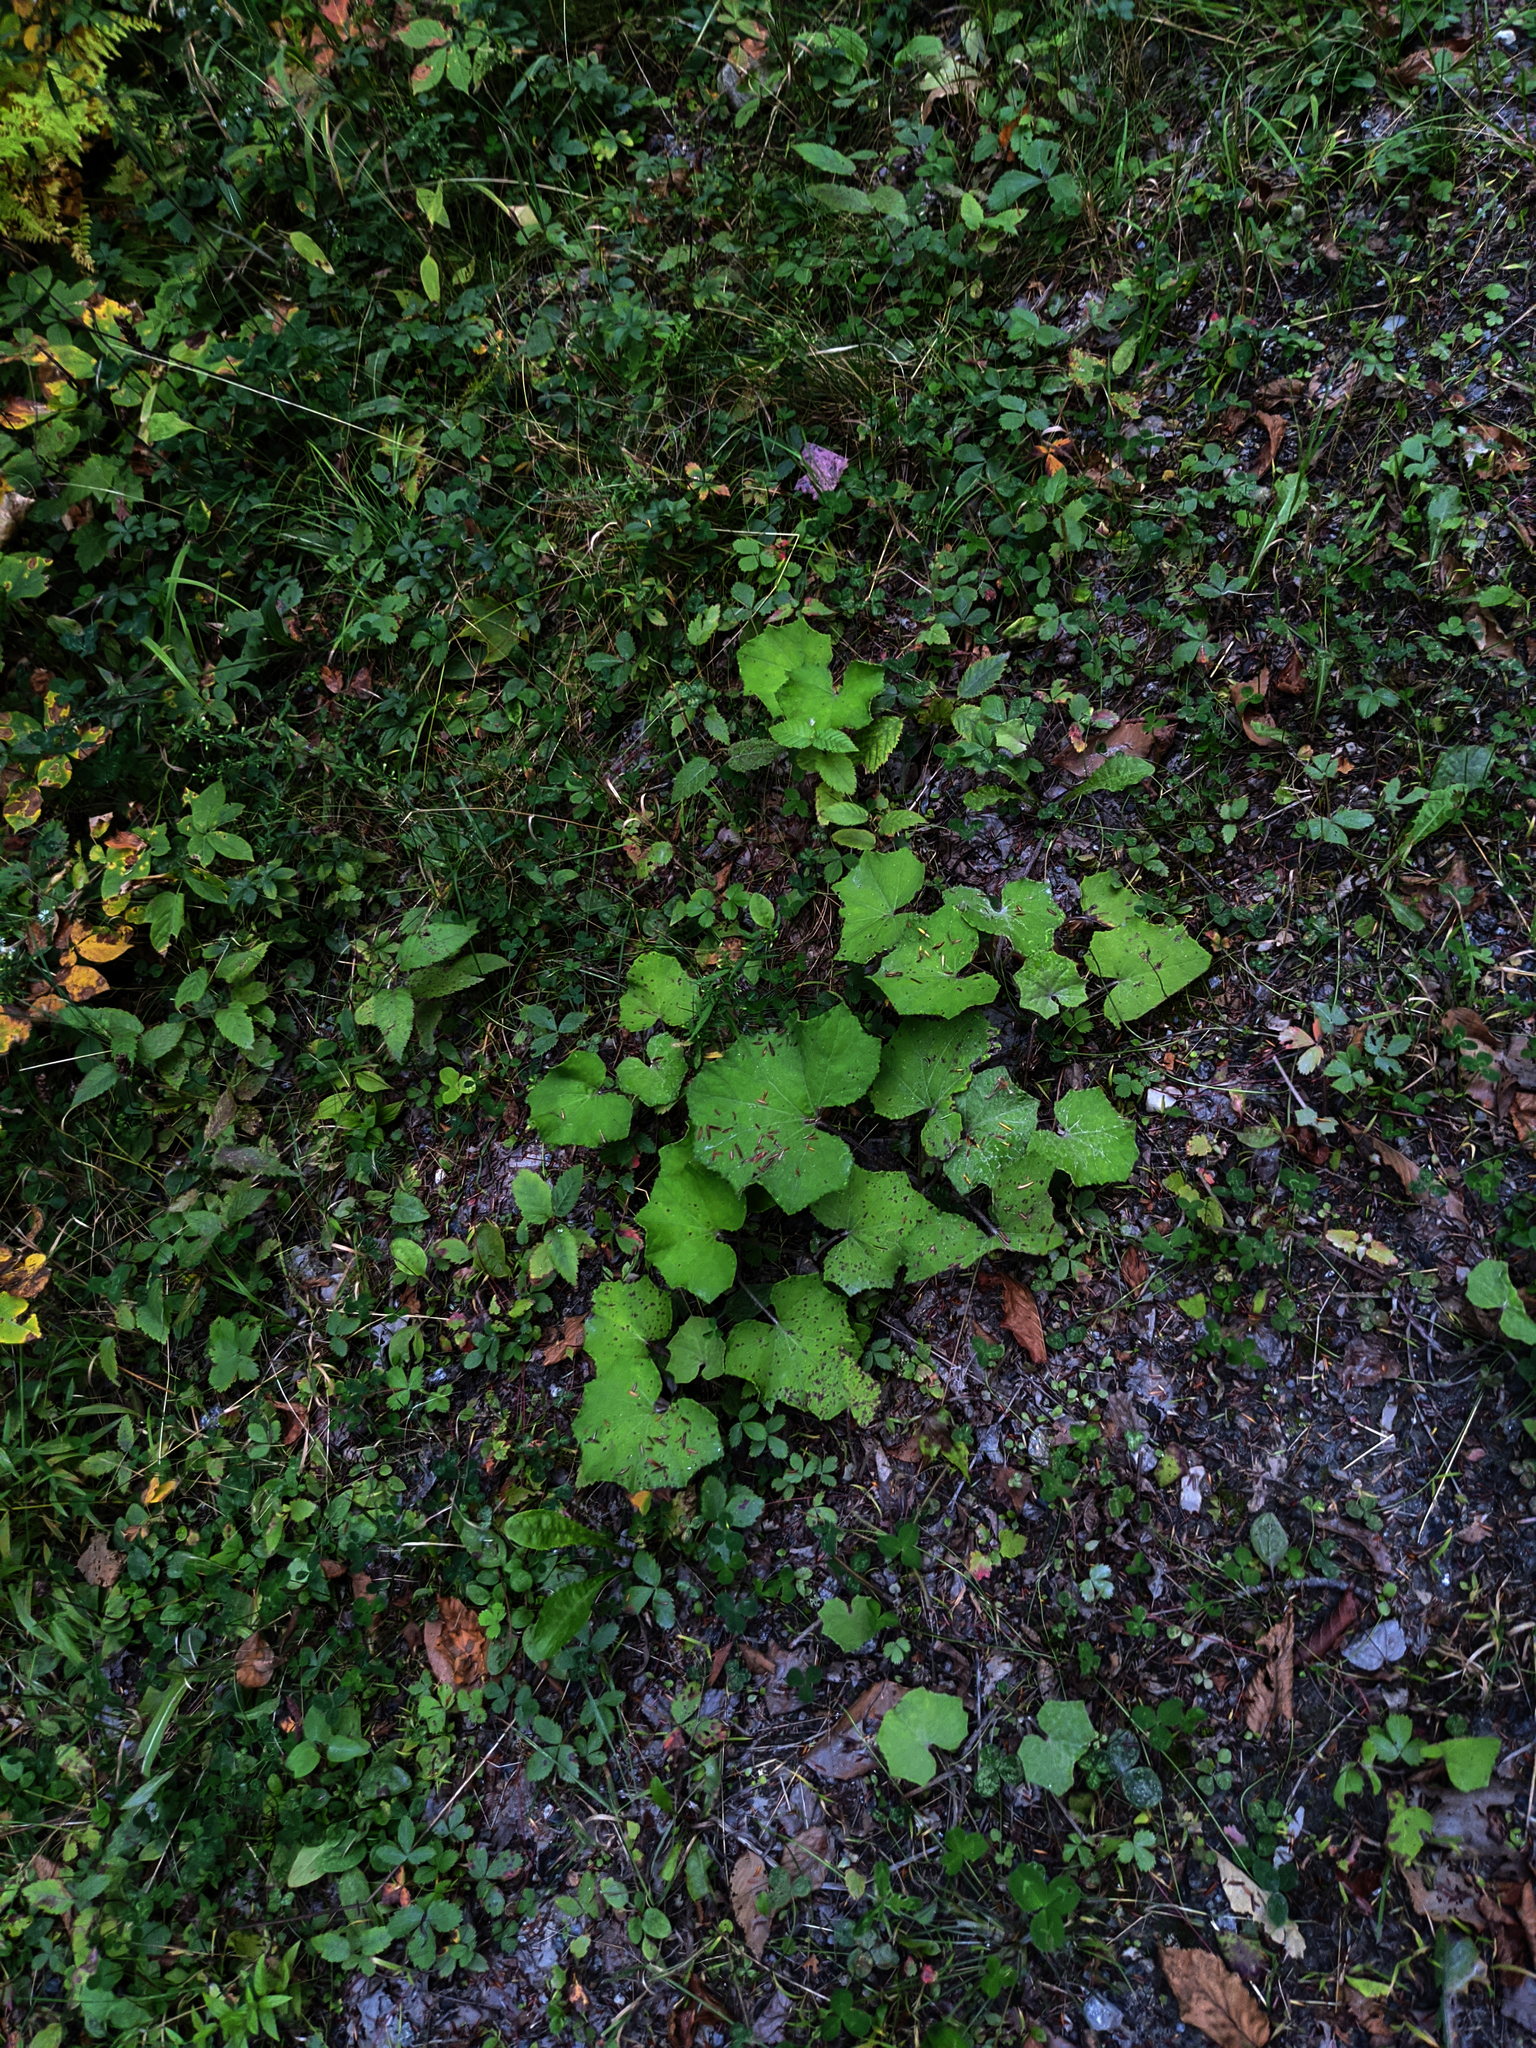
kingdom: Plantae
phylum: Tracheophyta
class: Magnoliopsida
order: Asterales
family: Asteraceae
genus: Tussilago
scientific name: Tussilago farfara
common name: Coltsfoot
